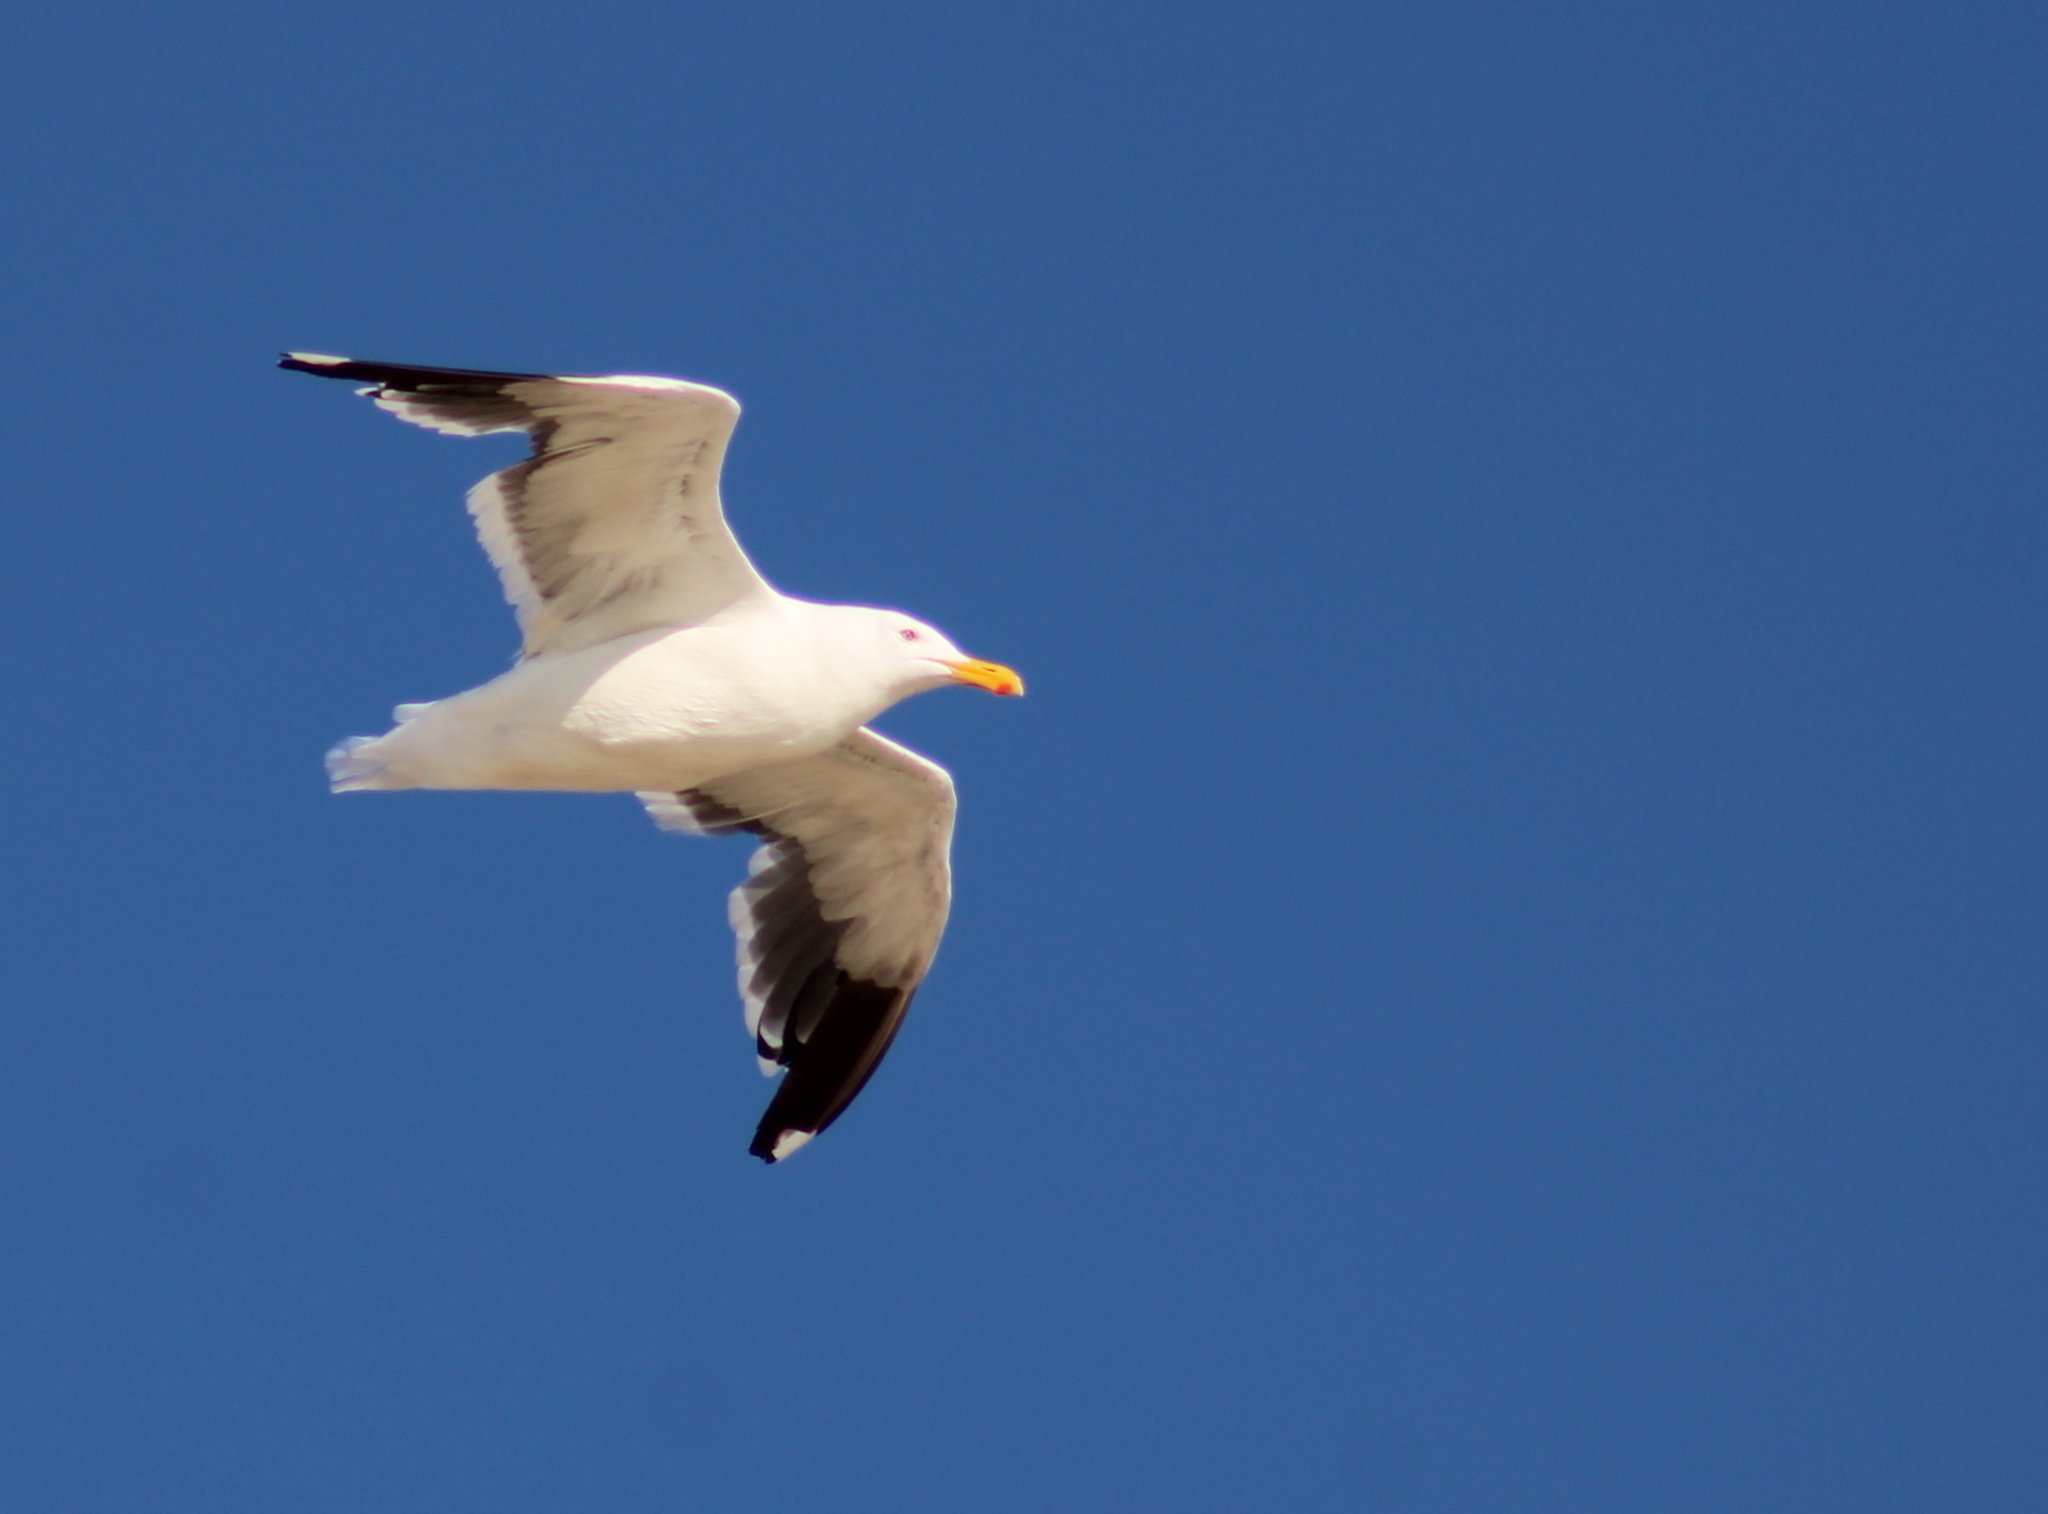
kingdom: Animalia
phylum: Chordata
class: Aves
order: Charadriiformes
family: Laridae
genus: Larus
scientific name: Larus occidentalis
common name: Western gull
